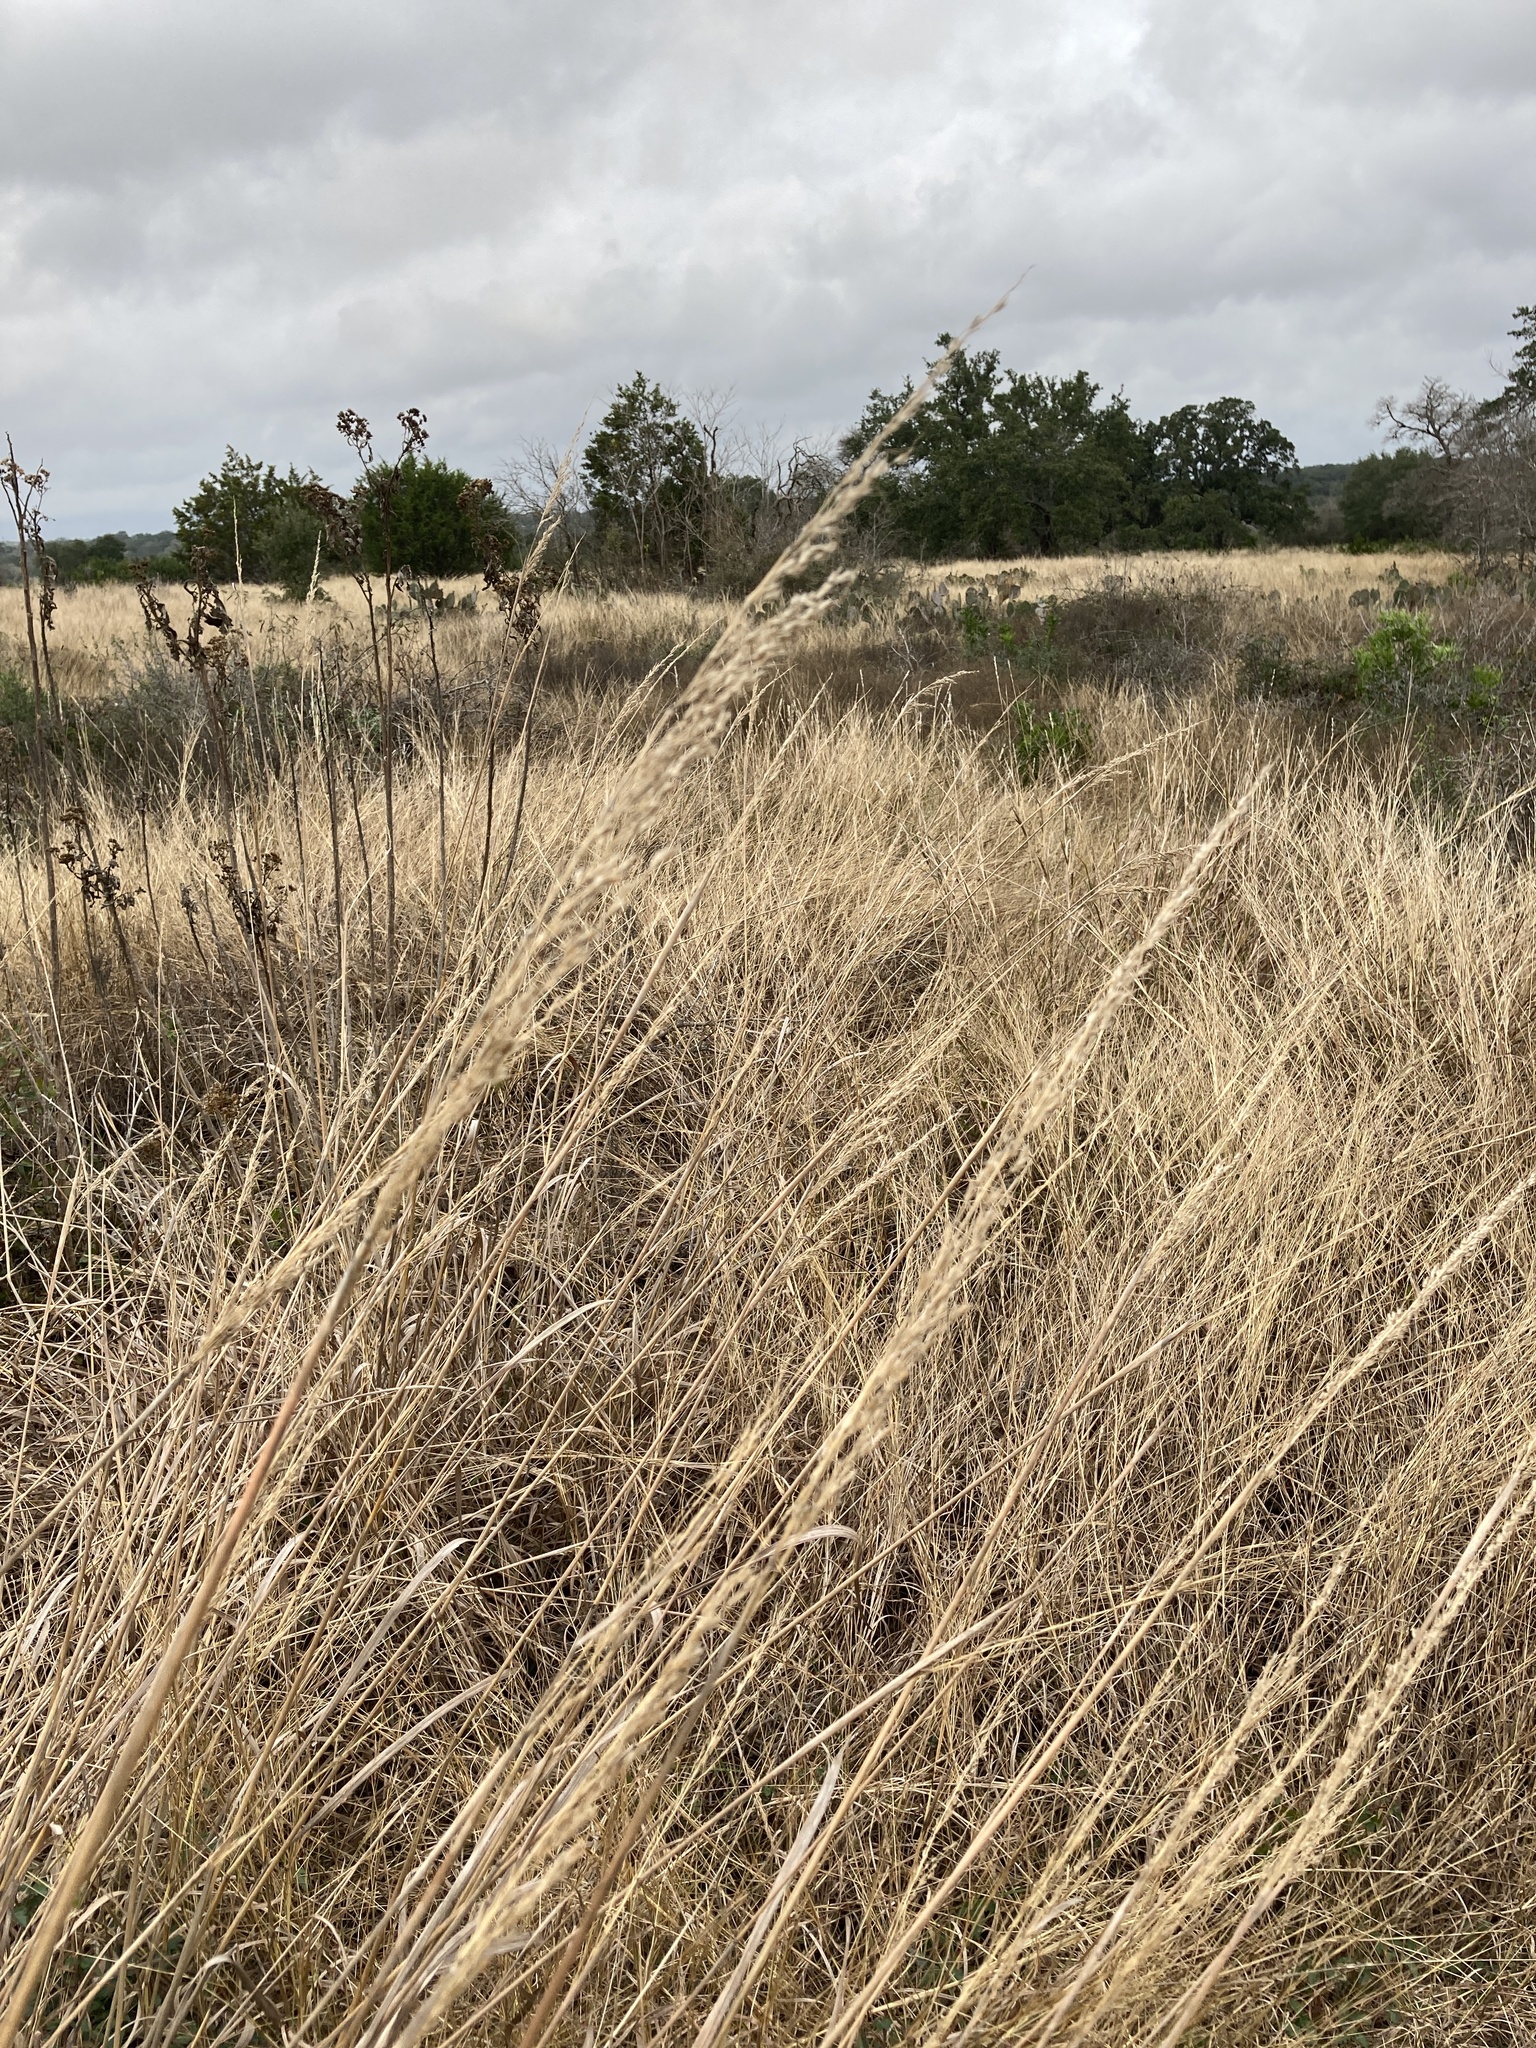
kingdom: Plantae
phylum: Tracheophyta
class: Liliopsida
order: Poales
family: Poaceae
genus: Sorghastrum
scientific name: Sorghastrum nutans
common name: Indian grass
